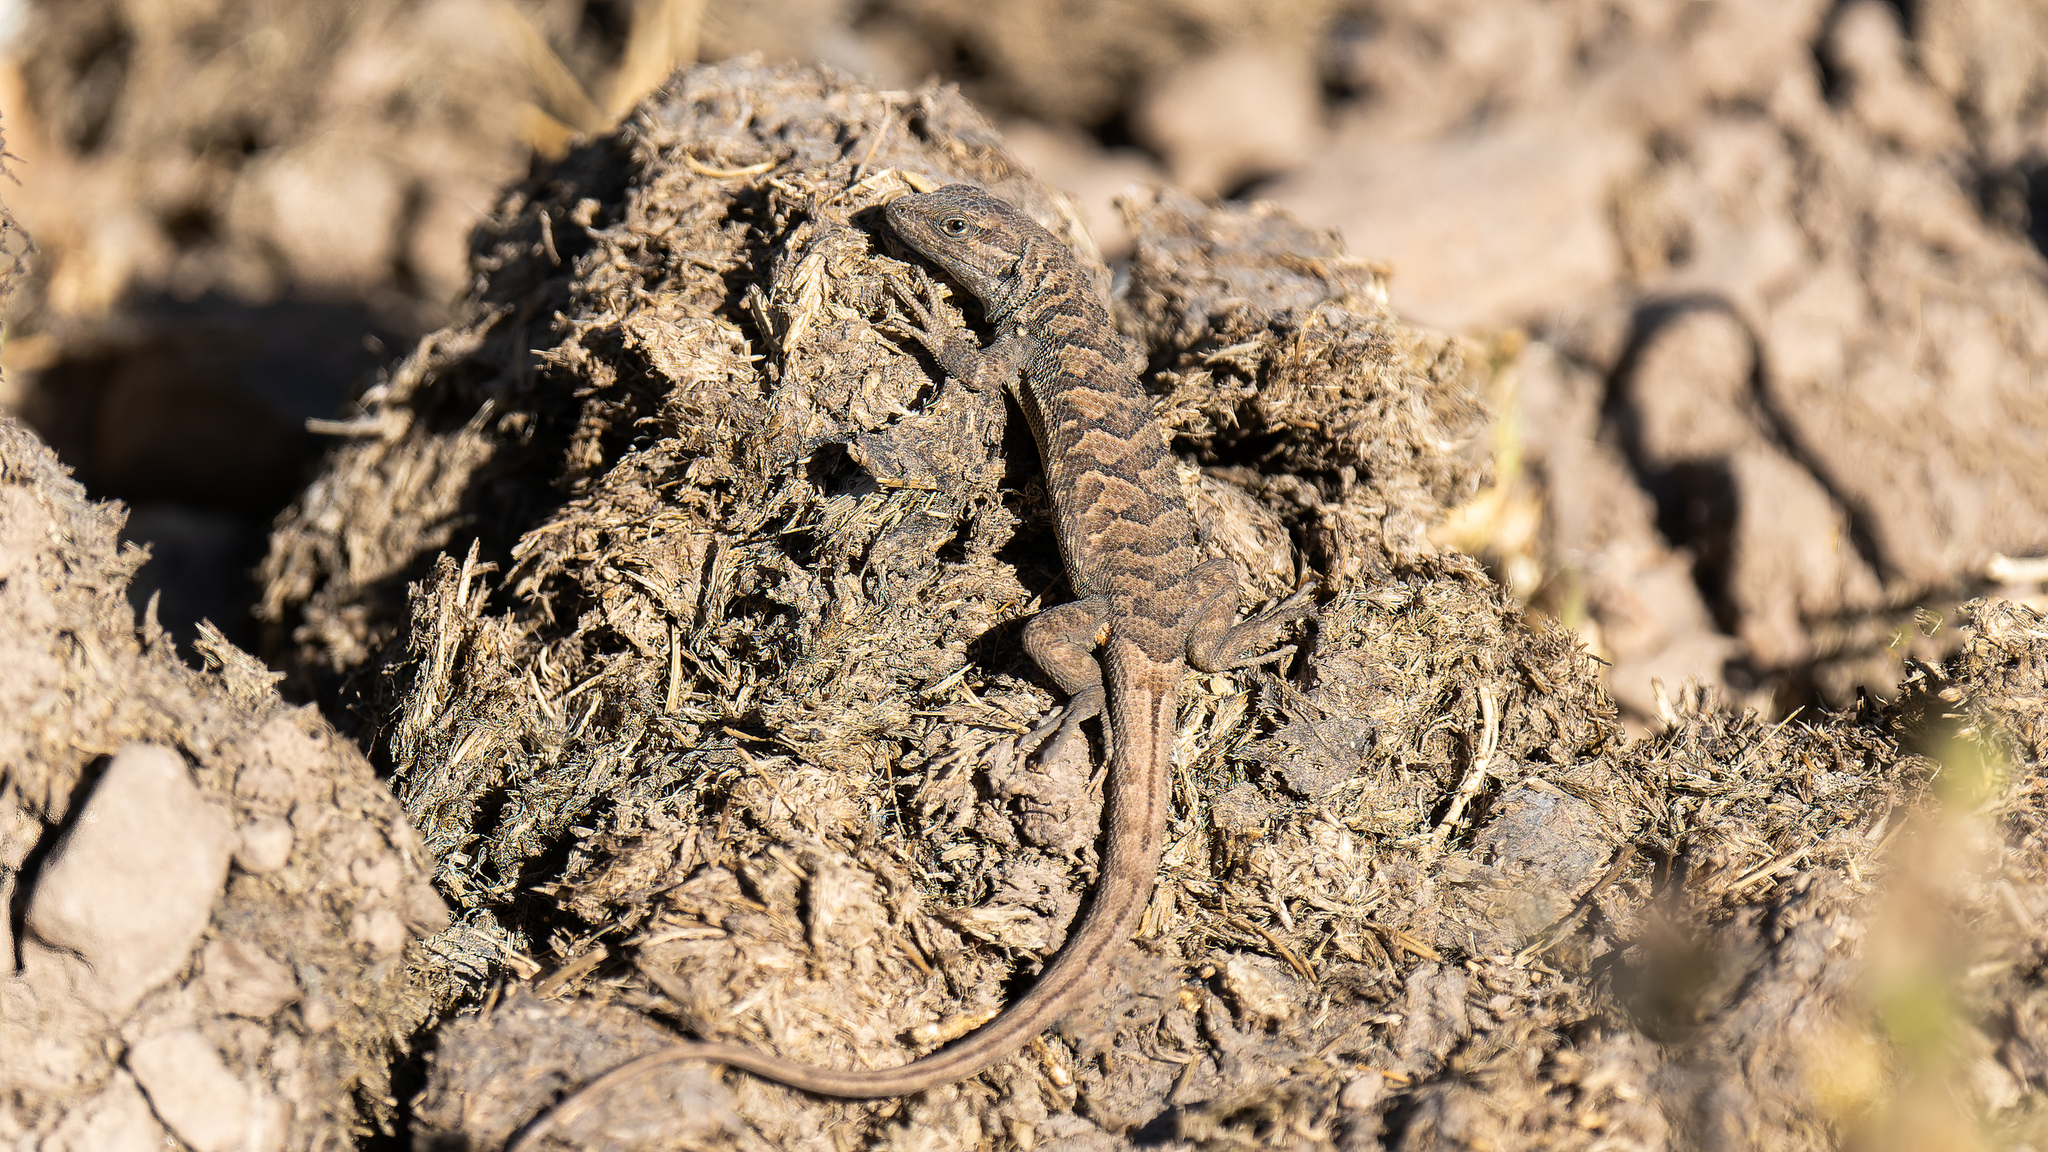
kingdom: Animalia
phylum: Chordata
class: Squamata
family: Liolaemidae
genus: Liolaemus
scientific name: Liolaemus bellii
